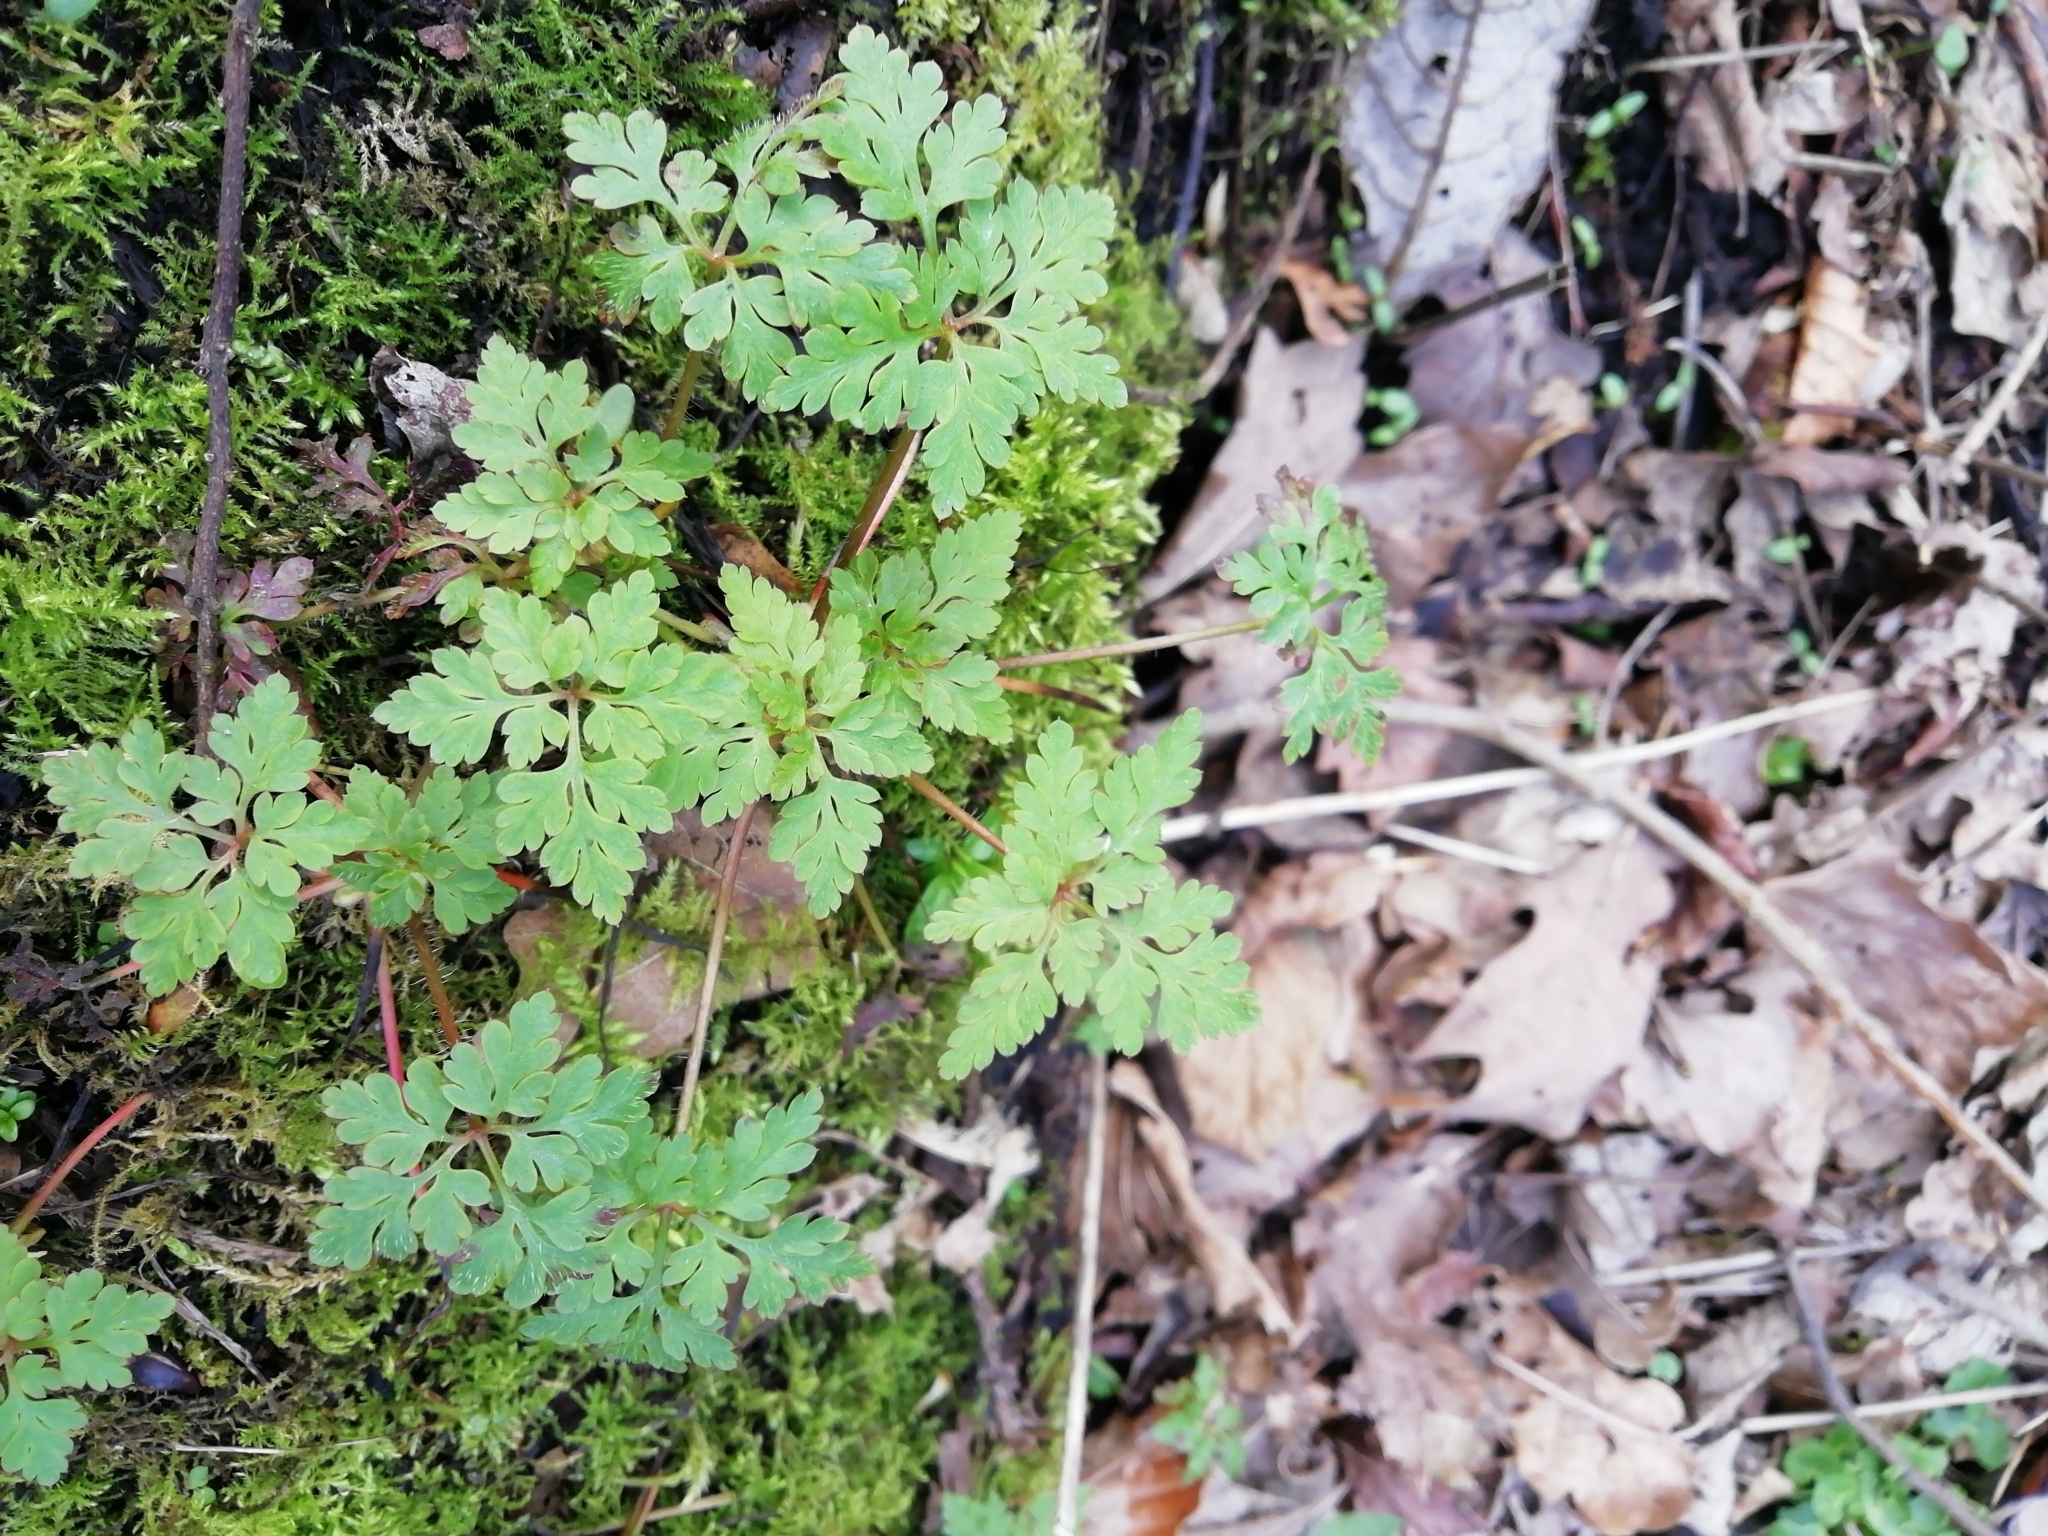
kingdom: Plantae
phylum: Tracheophyta
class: Magnoliopsida
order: Geraniales
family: Geraniaceae
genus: Geranium
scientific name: Geranium robertianum
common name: Herb-robert
